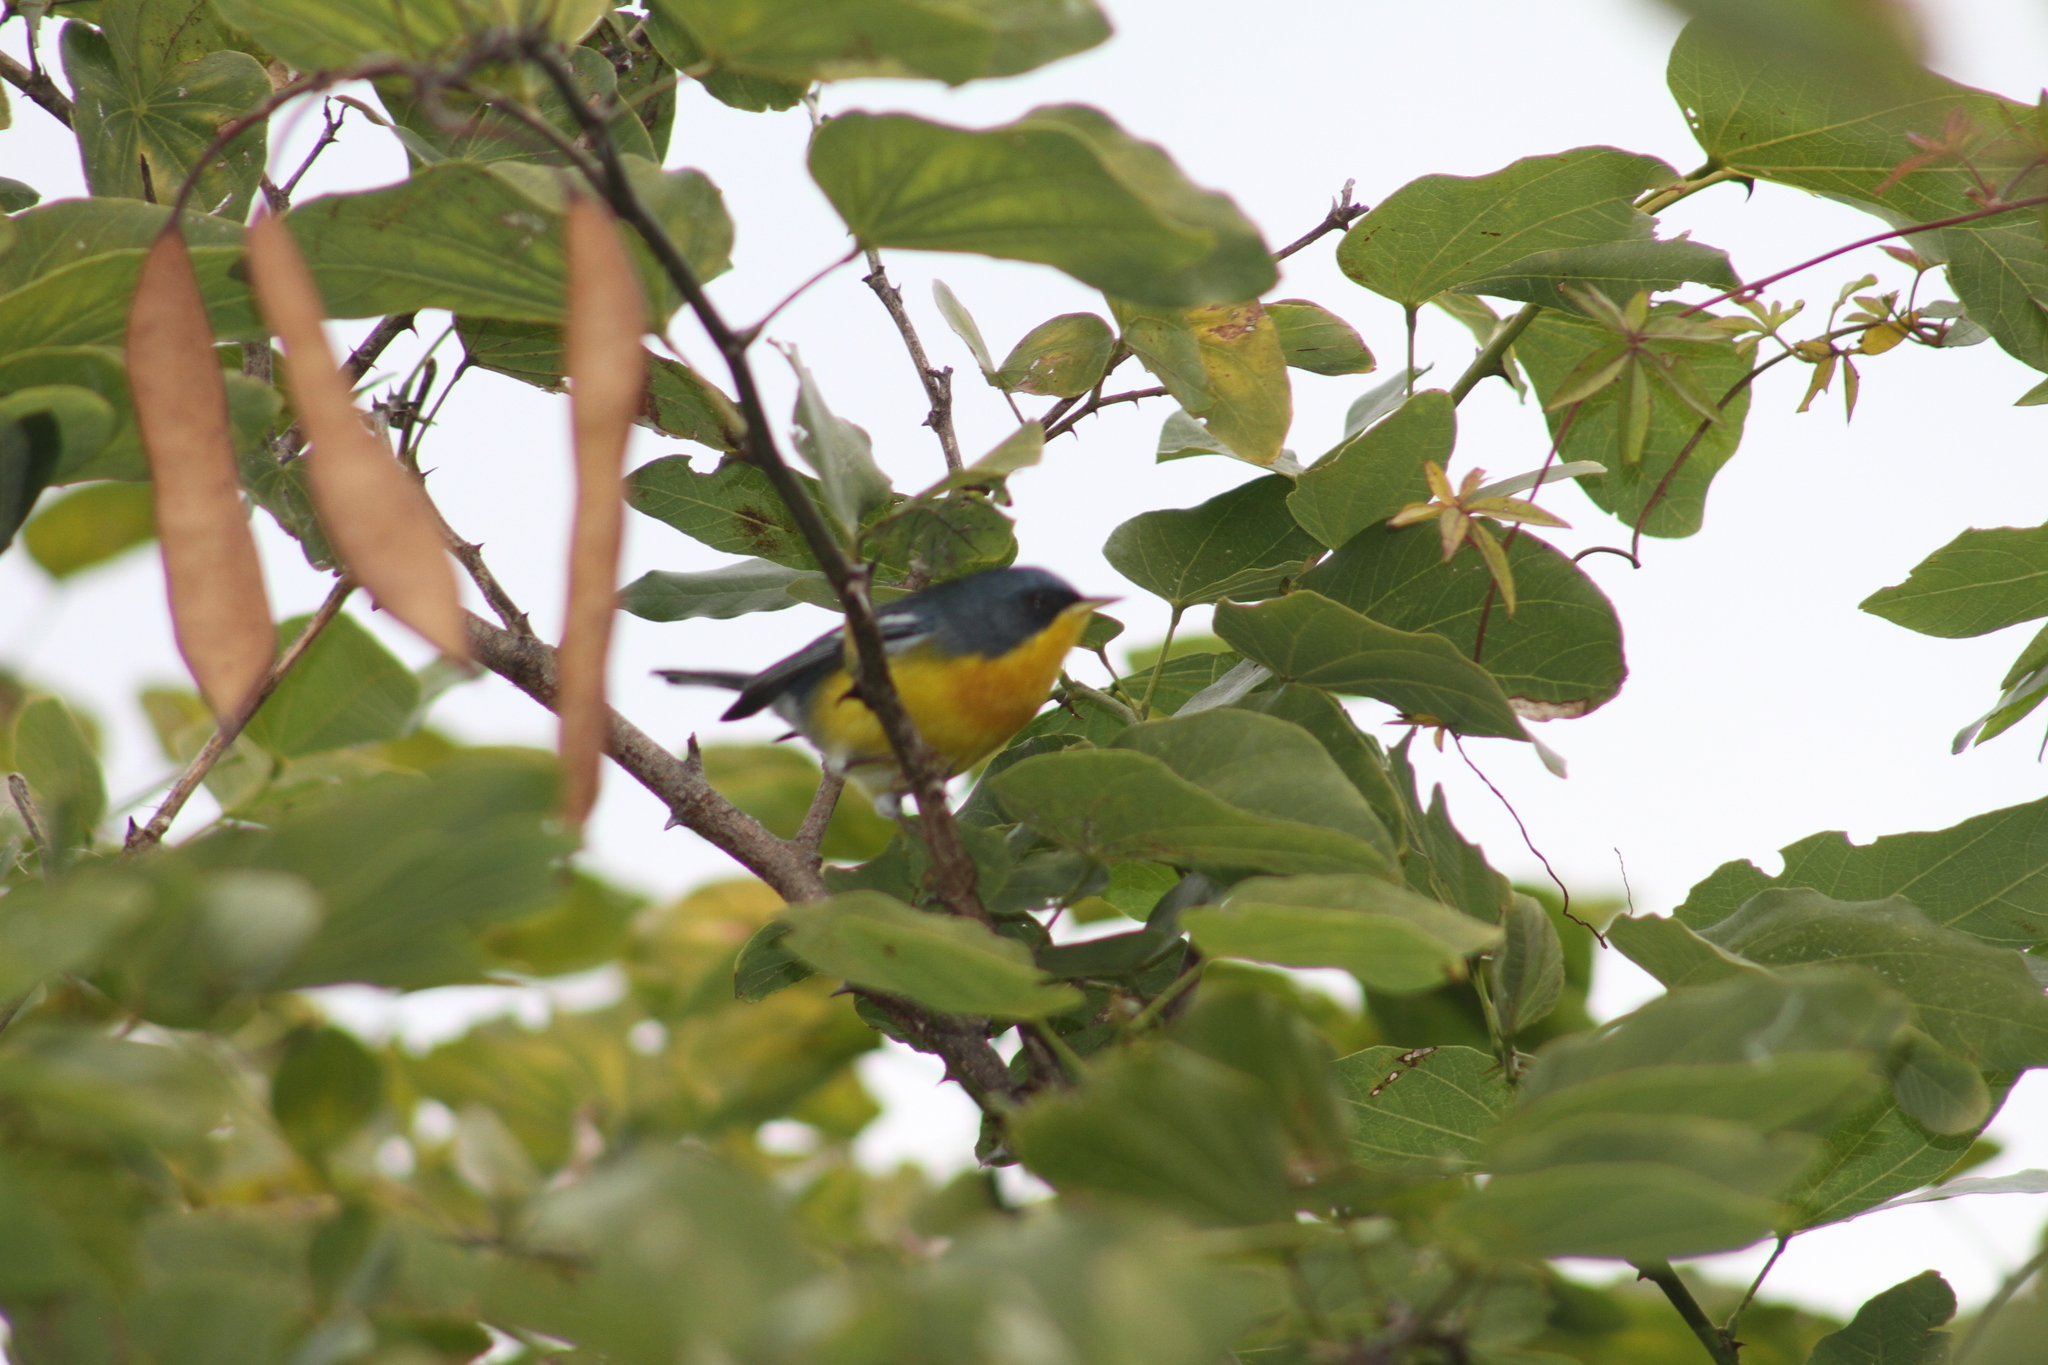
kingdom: Animalia
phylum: Chordata
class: Aves
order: Passeriformes
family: Parulidae
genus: Setophaga
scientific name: Setophaga pitiayumi
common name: Tropical parula
